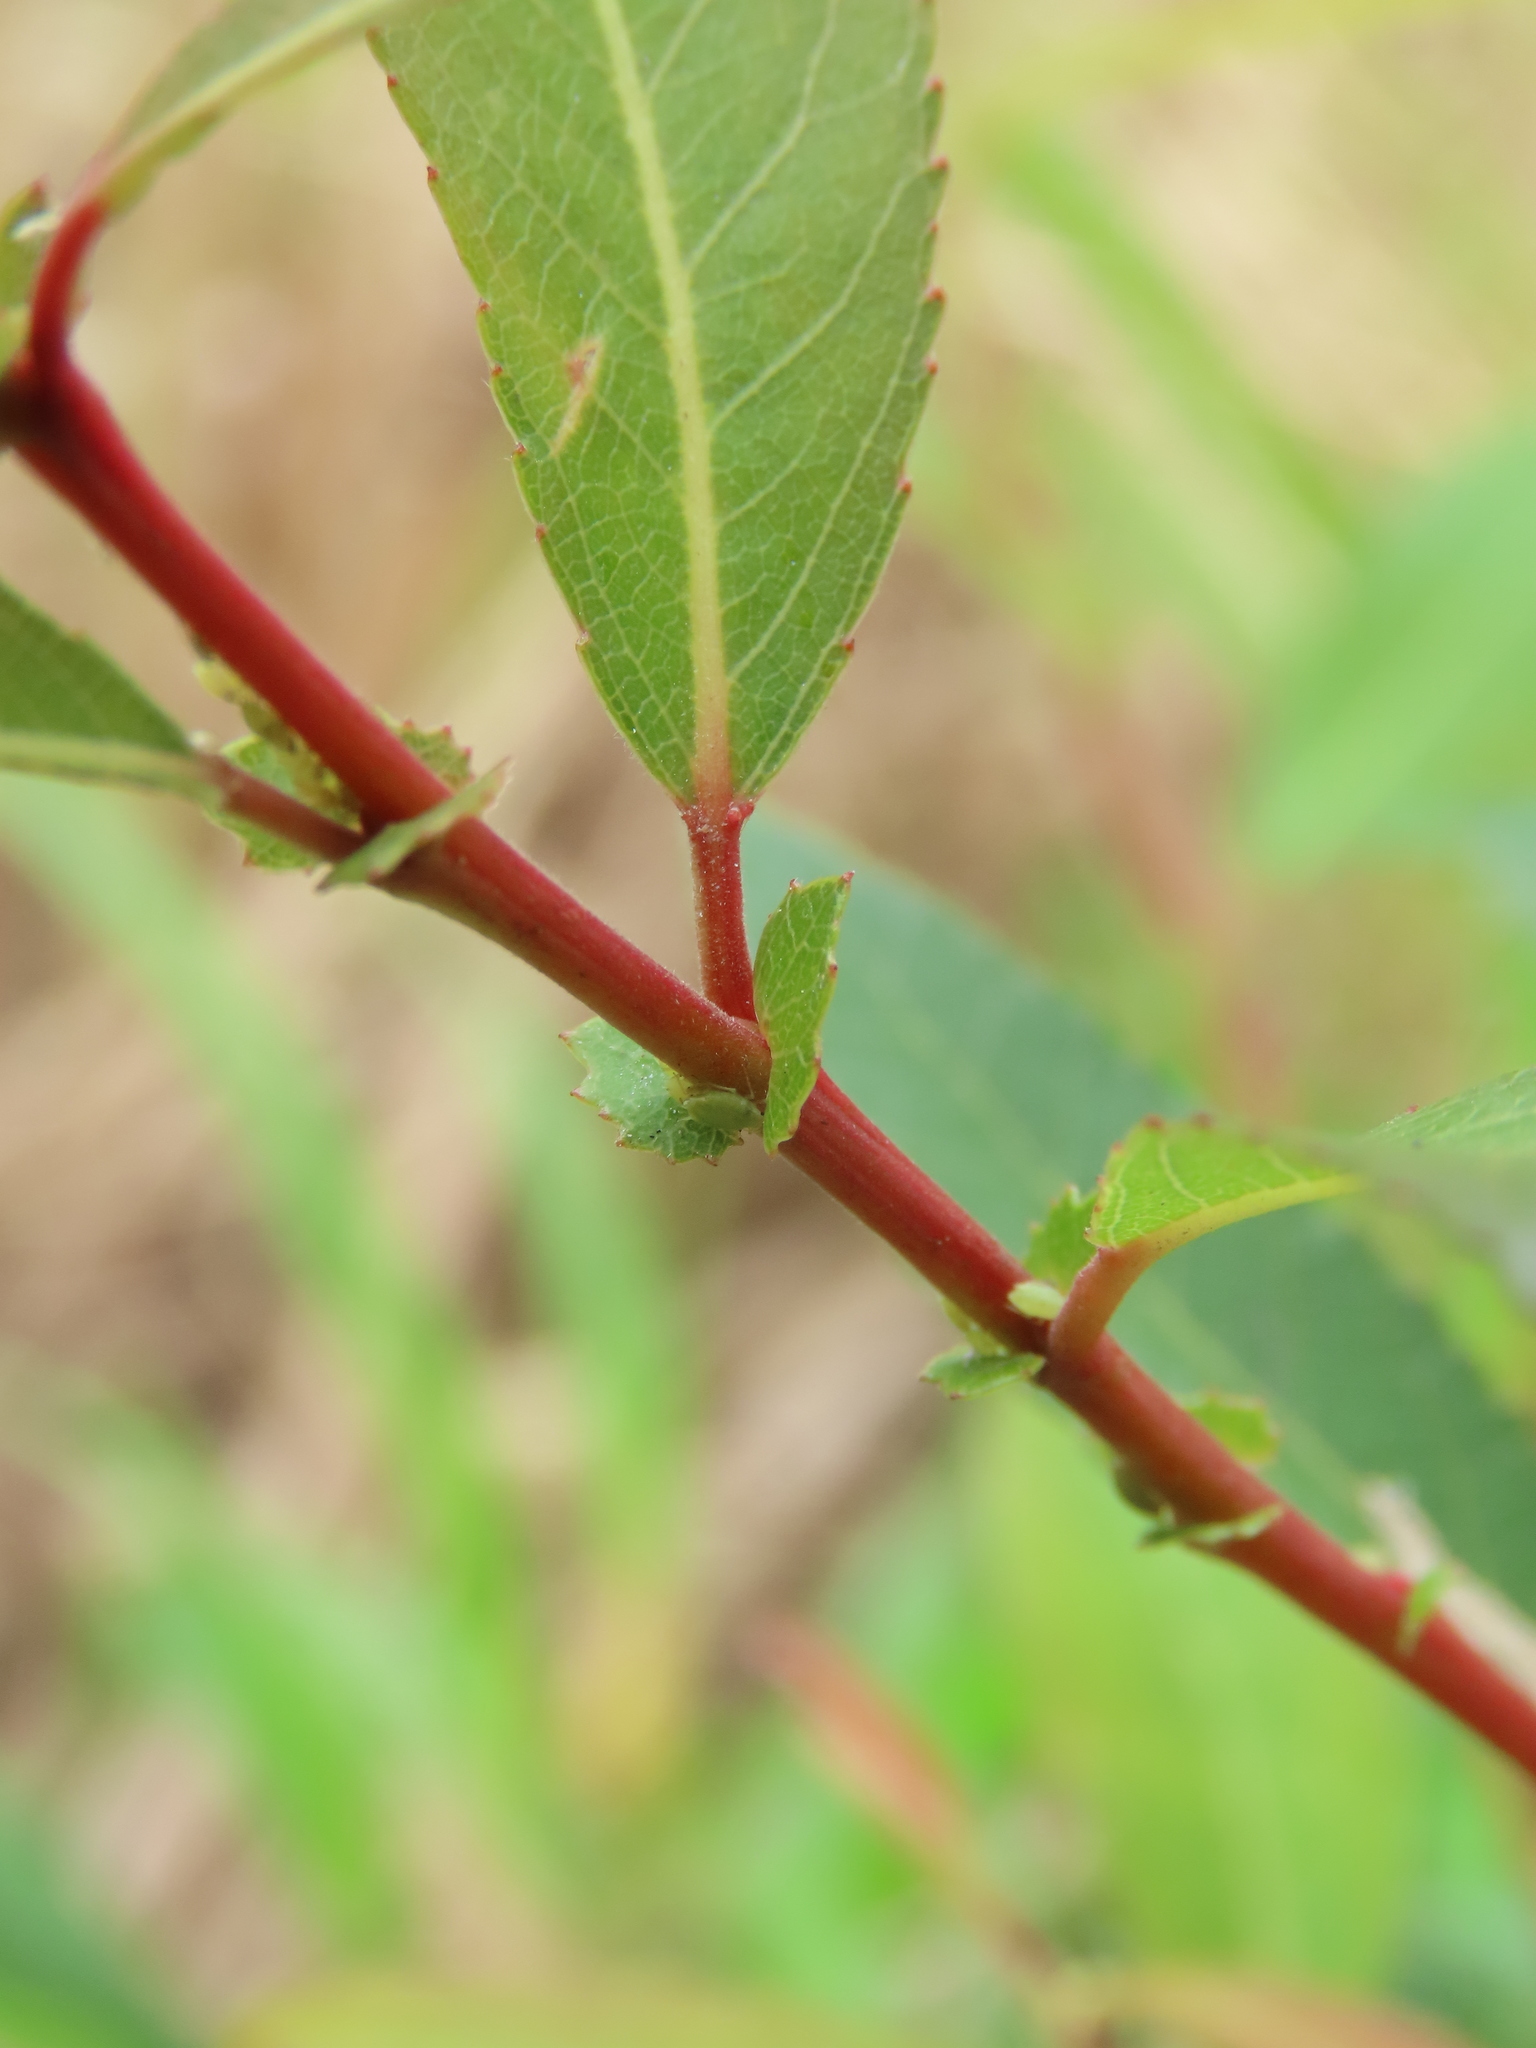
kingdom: Plantae
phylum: Tracheophyta
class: Magnoliopsida
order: Malpighiales
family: Salicaceae
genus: Salix
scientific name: Salix mesnyi
